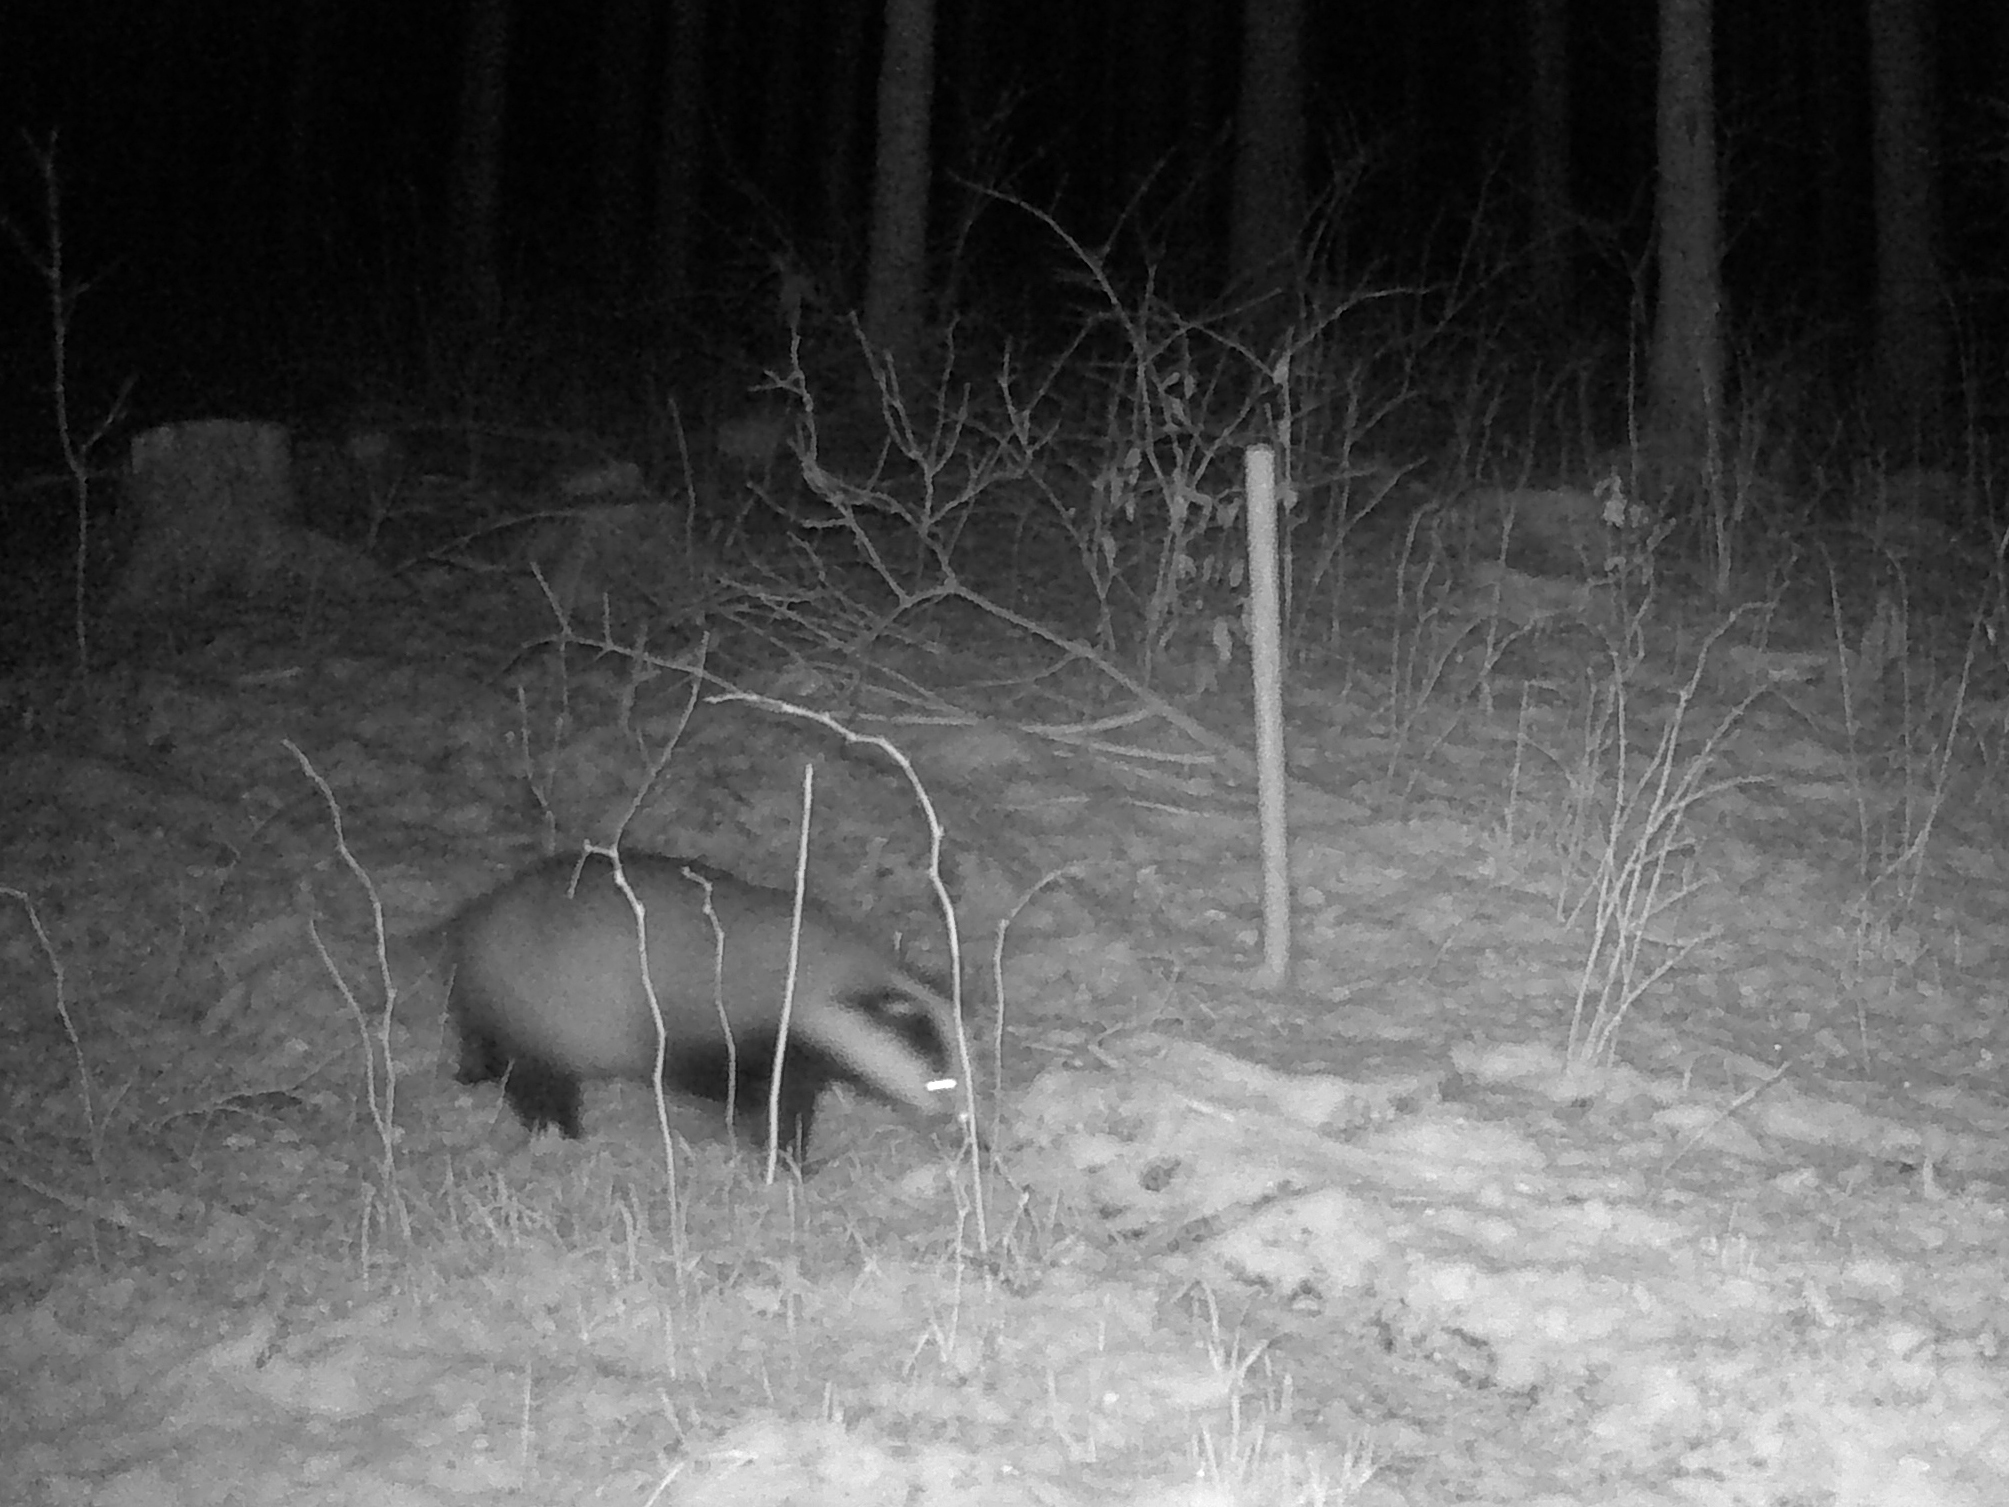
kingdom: Animalia
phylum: Chordata
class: Mammalia
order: Carnivora
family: Mustelidae
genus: Meles
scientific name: Meles meles
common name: Eurasian badger
